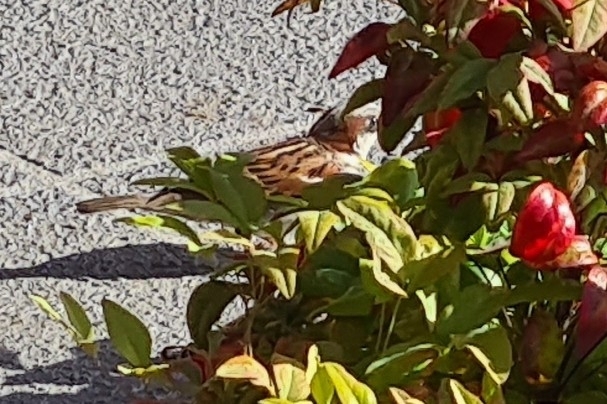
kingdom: Animalia
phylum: Chordata
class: Aves
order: Passeriformes
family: Passeridae
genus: Passer
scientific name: Passer domesticus
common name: House sparrow
